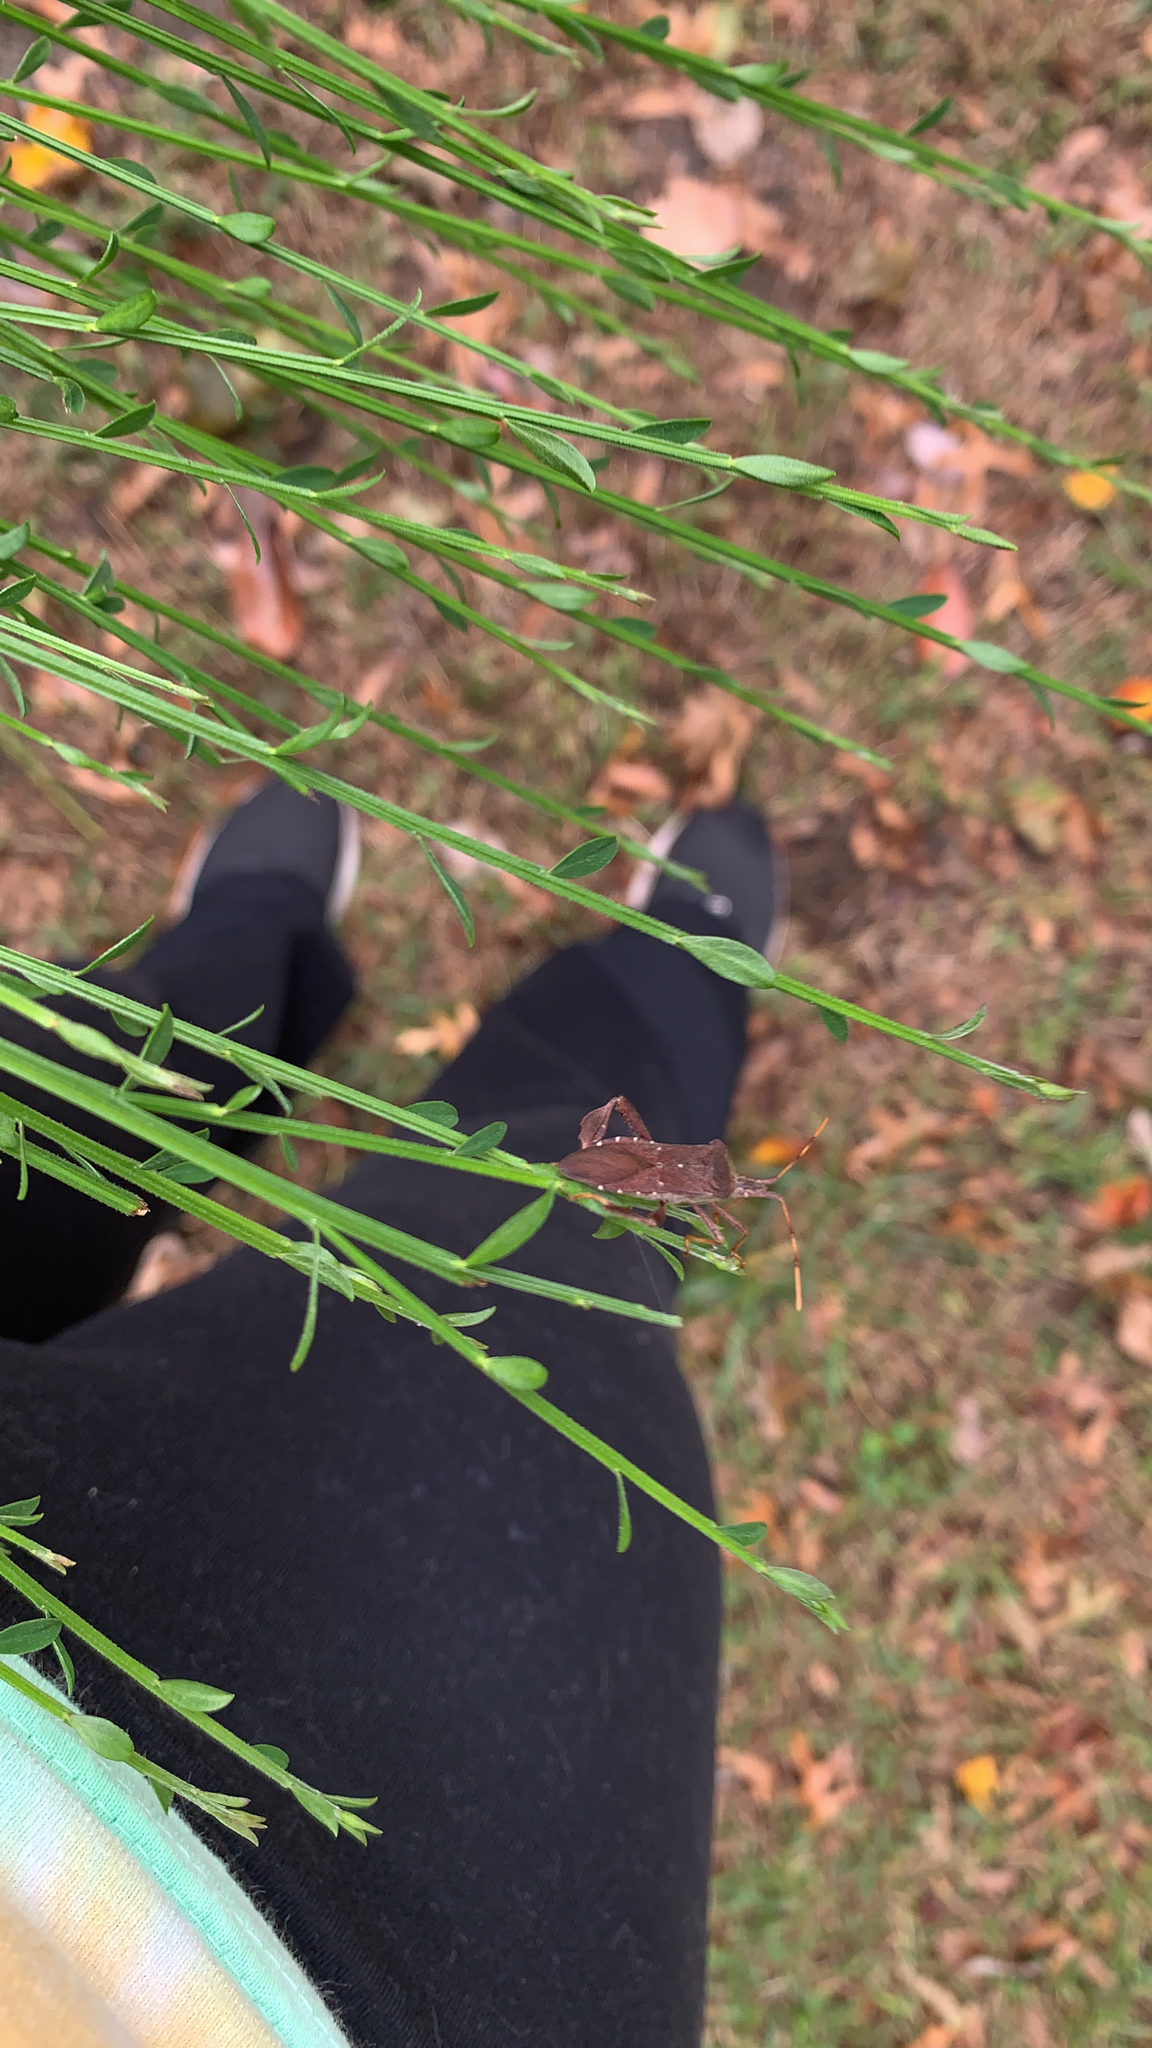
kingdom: Animalia
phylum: Arthropoda
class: Insecta
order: Hemiptera
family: Coreidae
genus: Leptoglossus
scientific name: Leptoglossus oppositus
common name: Northern leaf-footed bug
